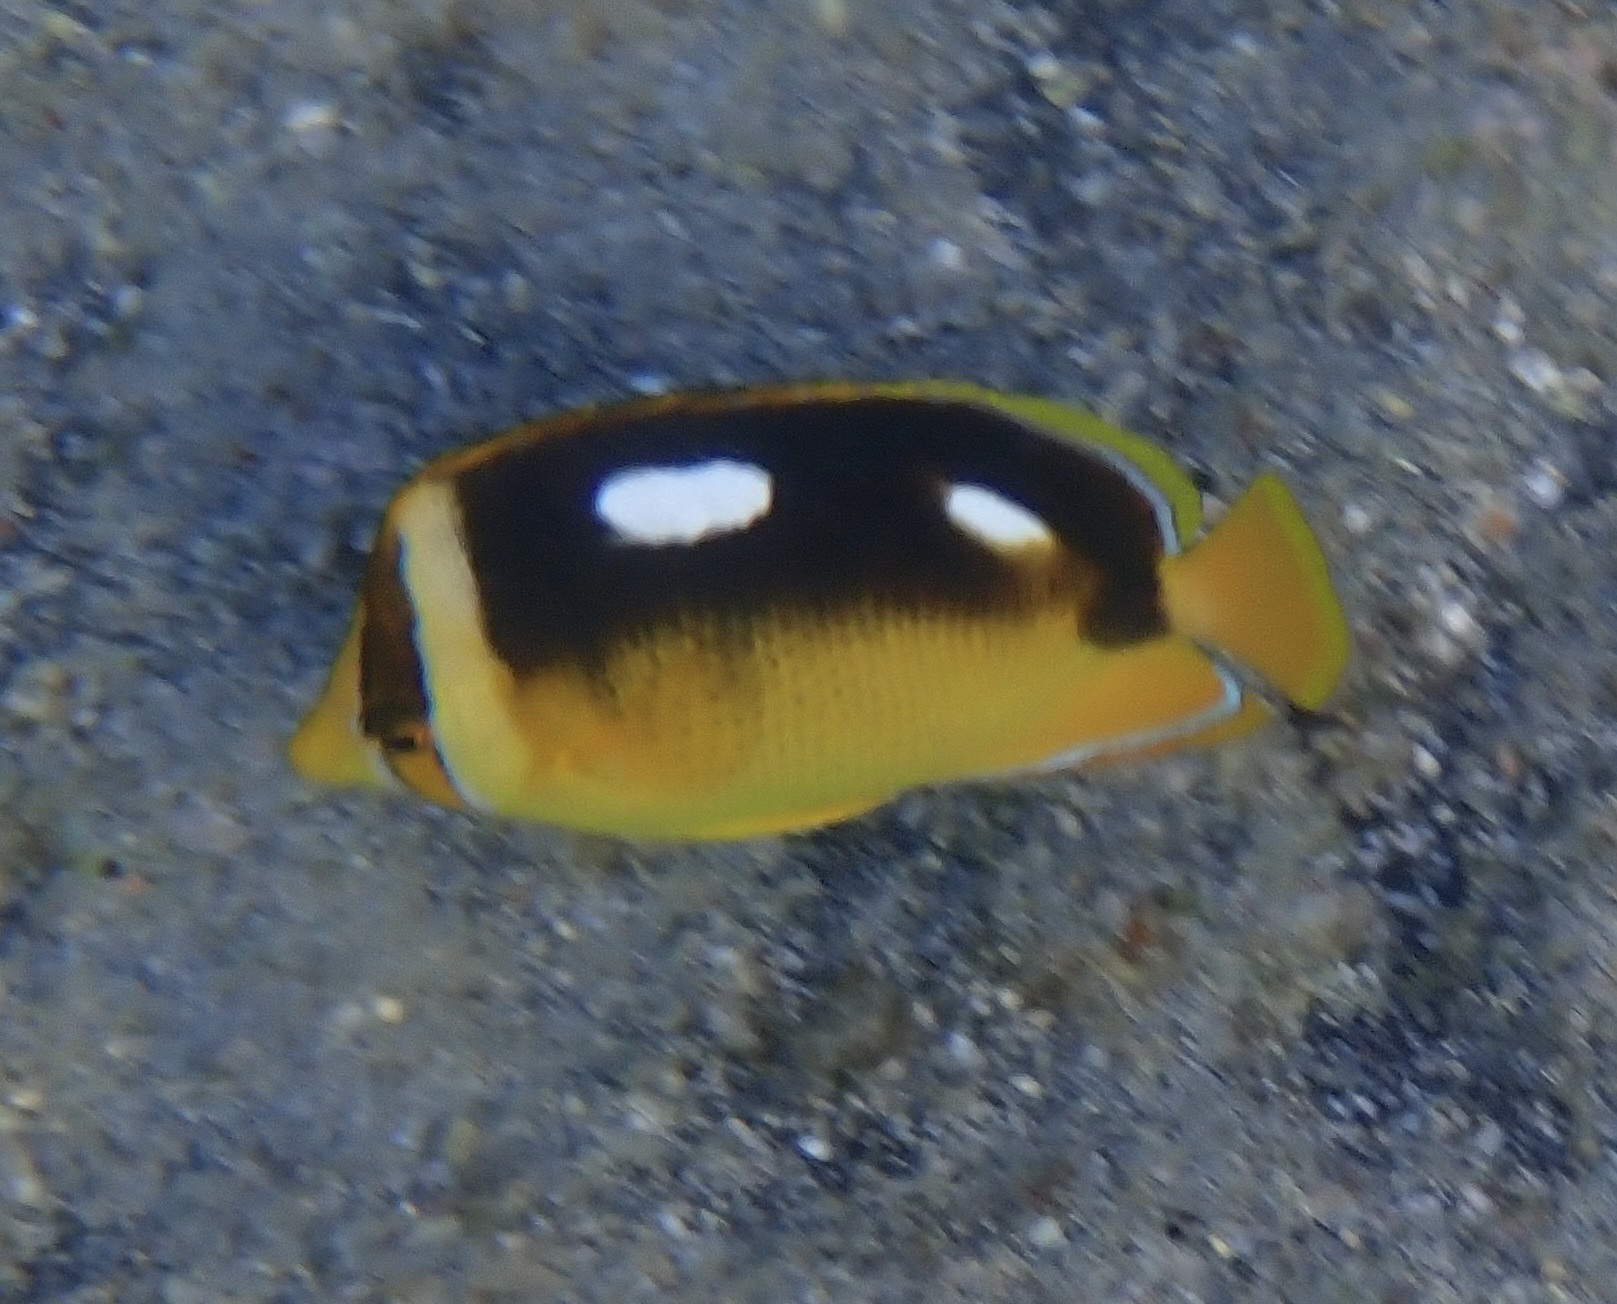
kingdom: Animalia
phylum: Chordata
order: Perciformes
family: Chaetodontidae
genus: Chaetodon
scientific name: Chaetodon quadrimaculatus
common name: Fourspot butterflyfish
